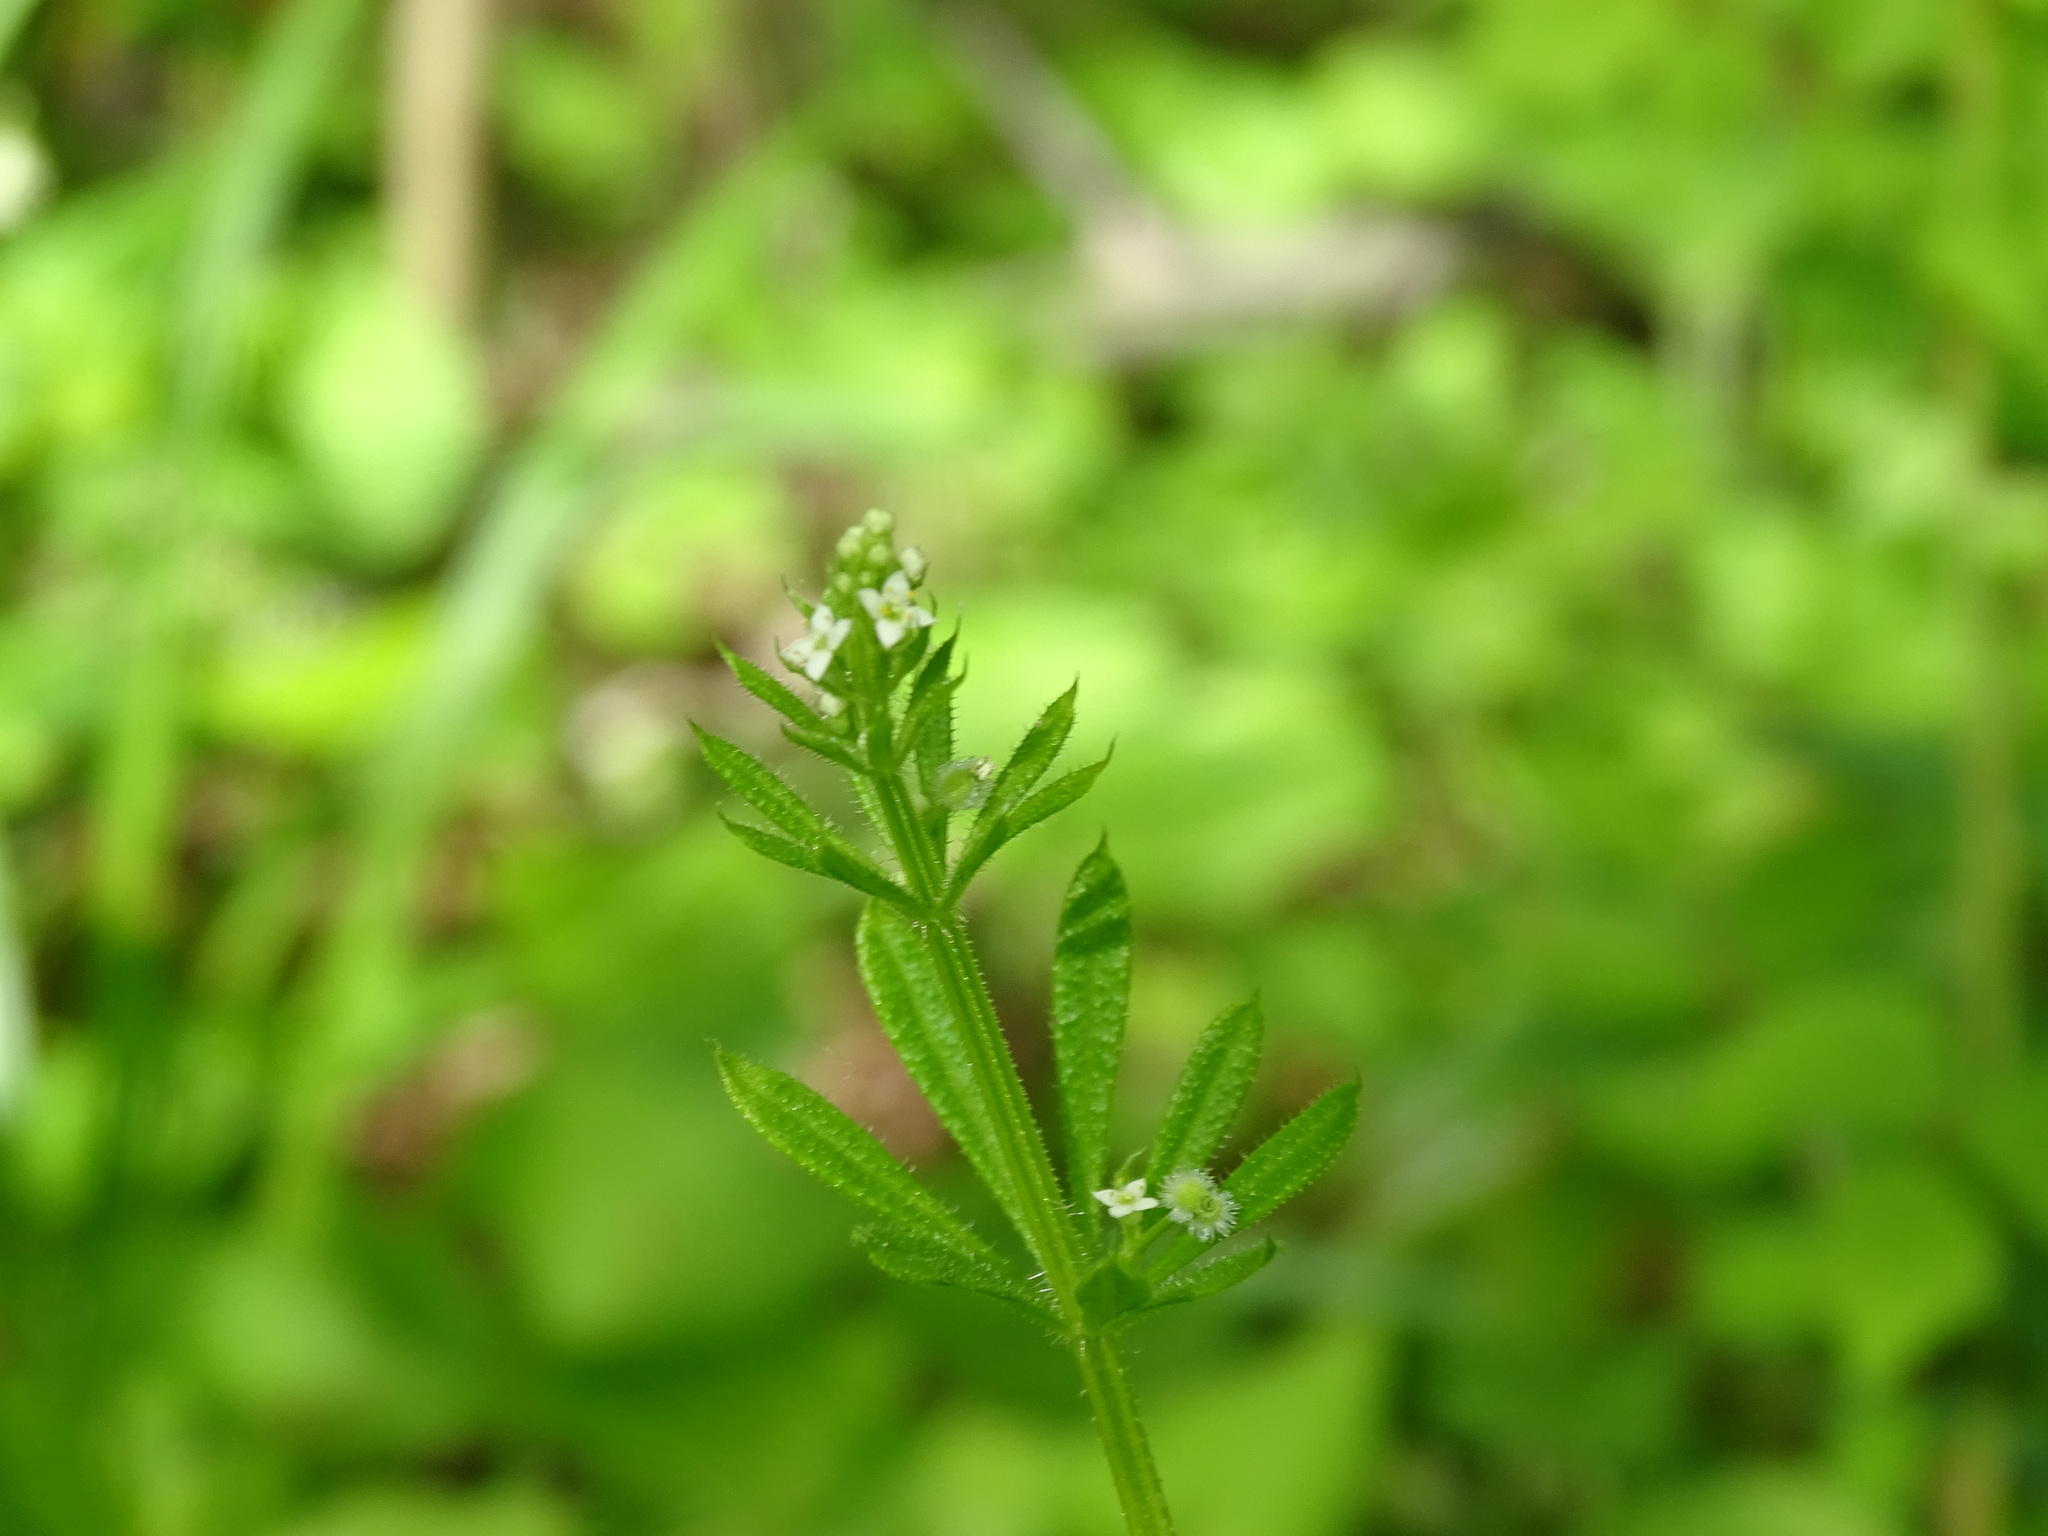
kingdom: Plantae
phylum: Tracheophyta
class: Magnoliopsida
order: Gentianales
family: Rubiaceae
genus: Galium
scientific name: Galium aparine
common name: Cleavers
